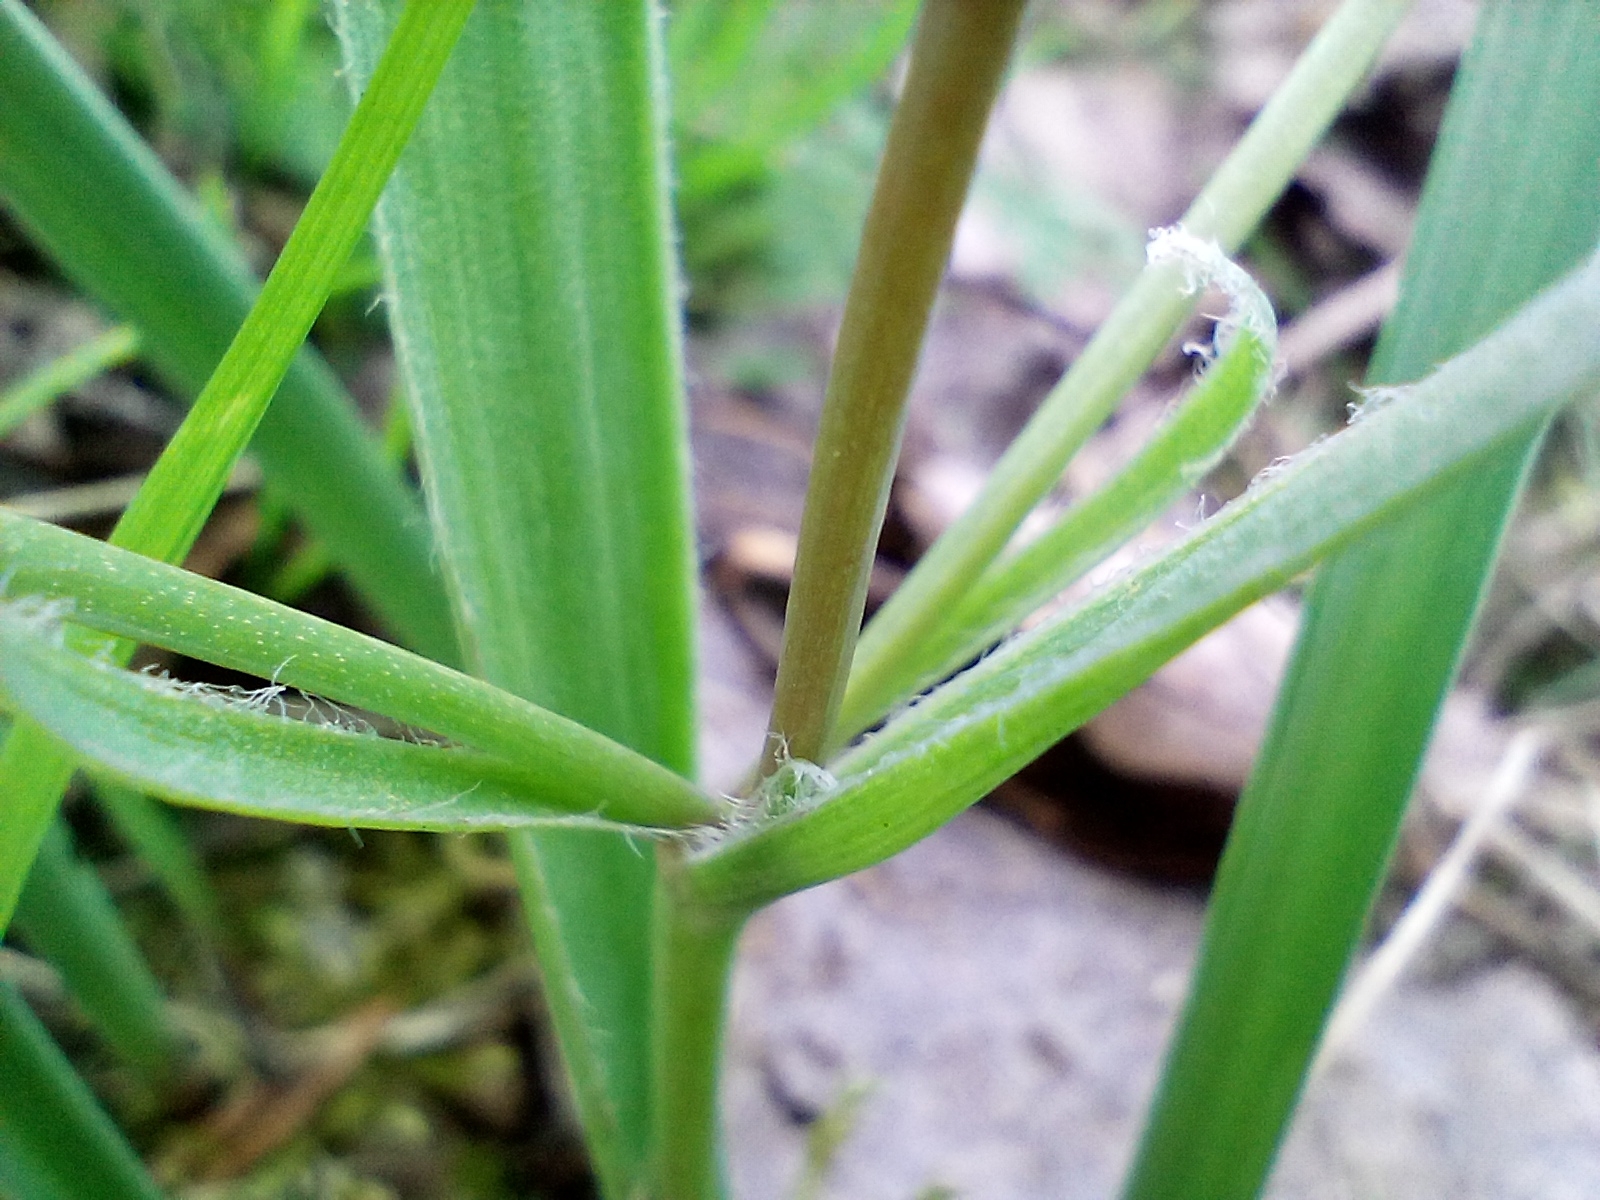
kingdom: Plantae
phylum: Tracheophyta
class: Liliopsida
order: Liliales
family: Liliaceae
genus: Gagea
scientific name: Gagea pratensis
